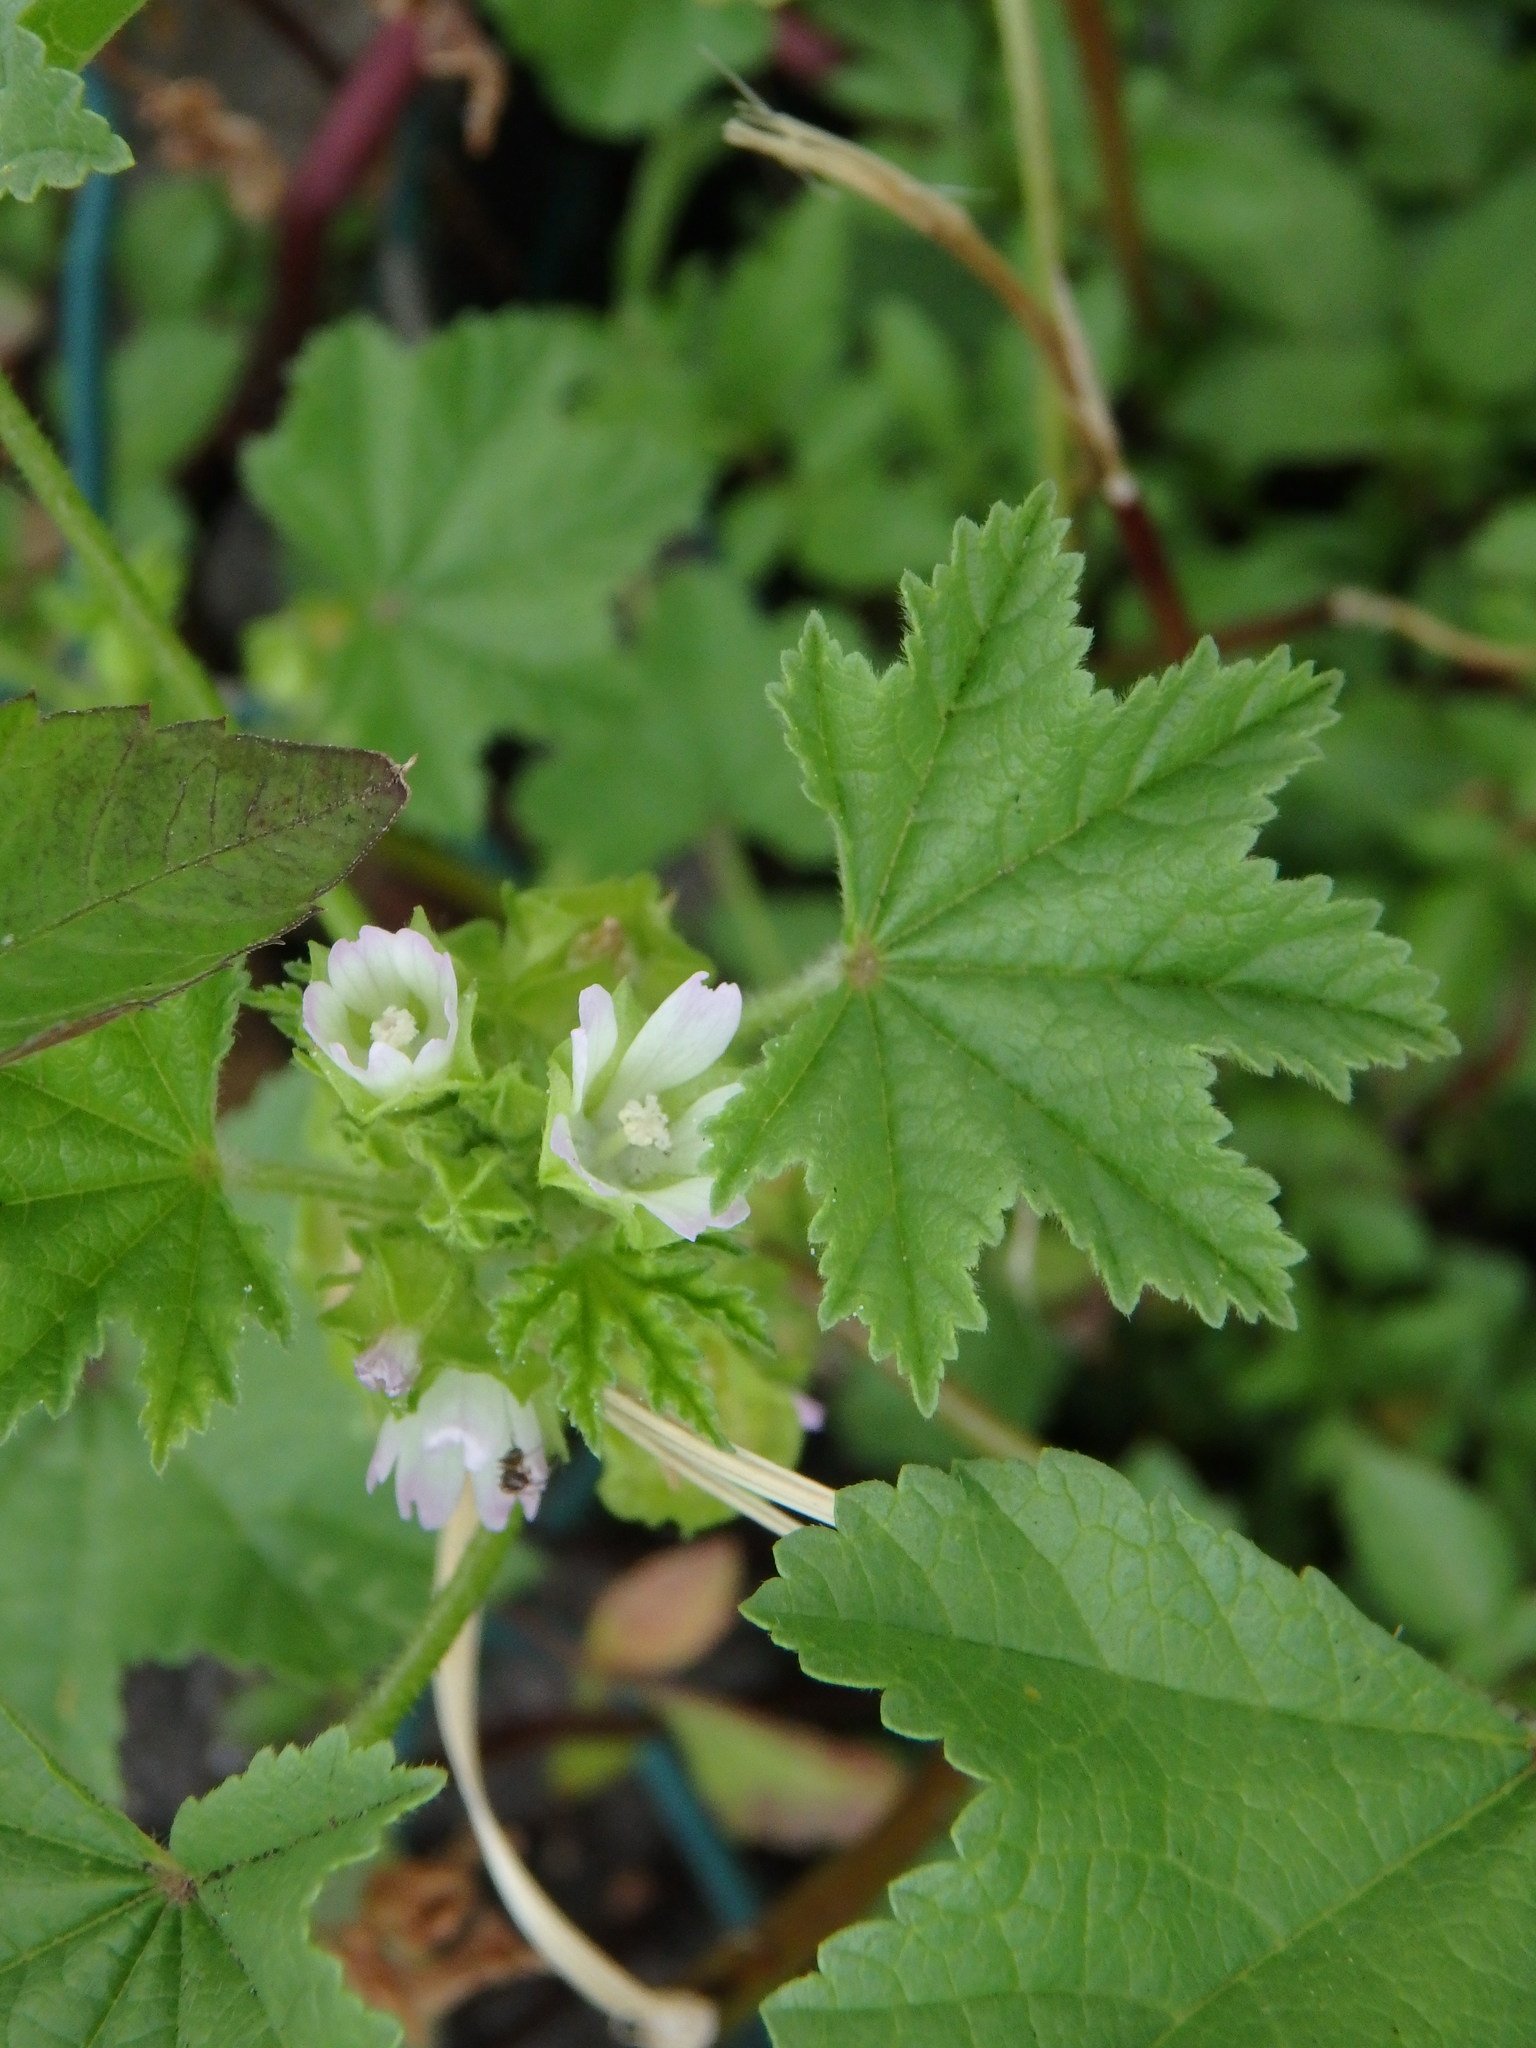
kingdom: Plantae
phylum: Tracheophyta
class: Magnoliopsida
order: Malvales
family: Malvaceae
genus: Malva
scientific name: Malva parviflora
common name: Least mallow
